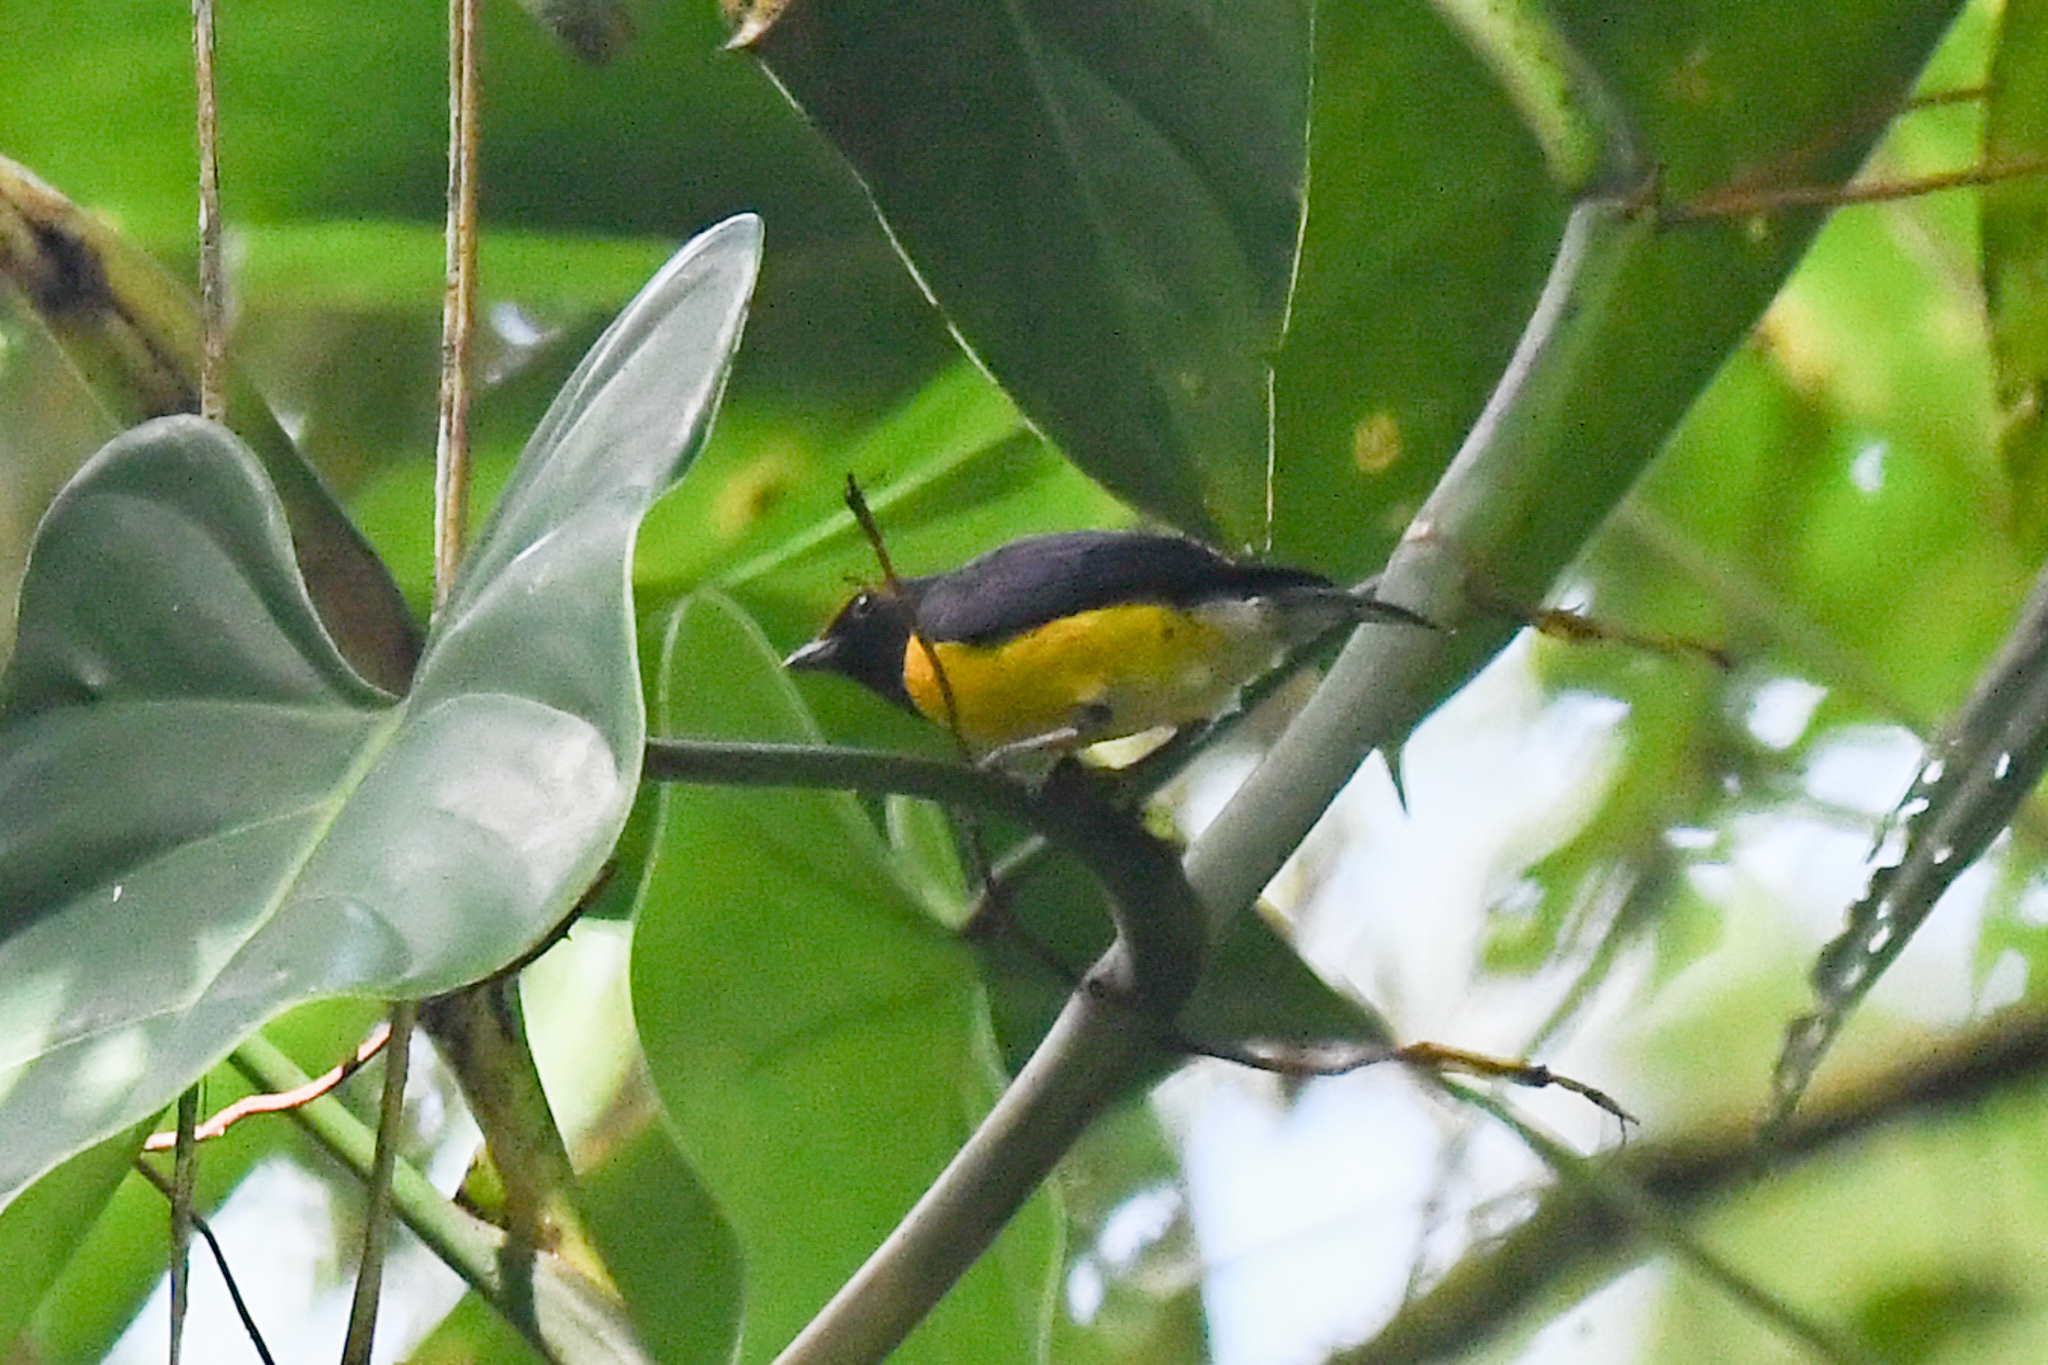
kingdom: Animalia
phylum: Chordata
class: Aves
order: Passeriformes
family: Fringillidae
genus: Euphonia
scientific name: Euphonia anneae
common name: Tawny-capped euphonia
